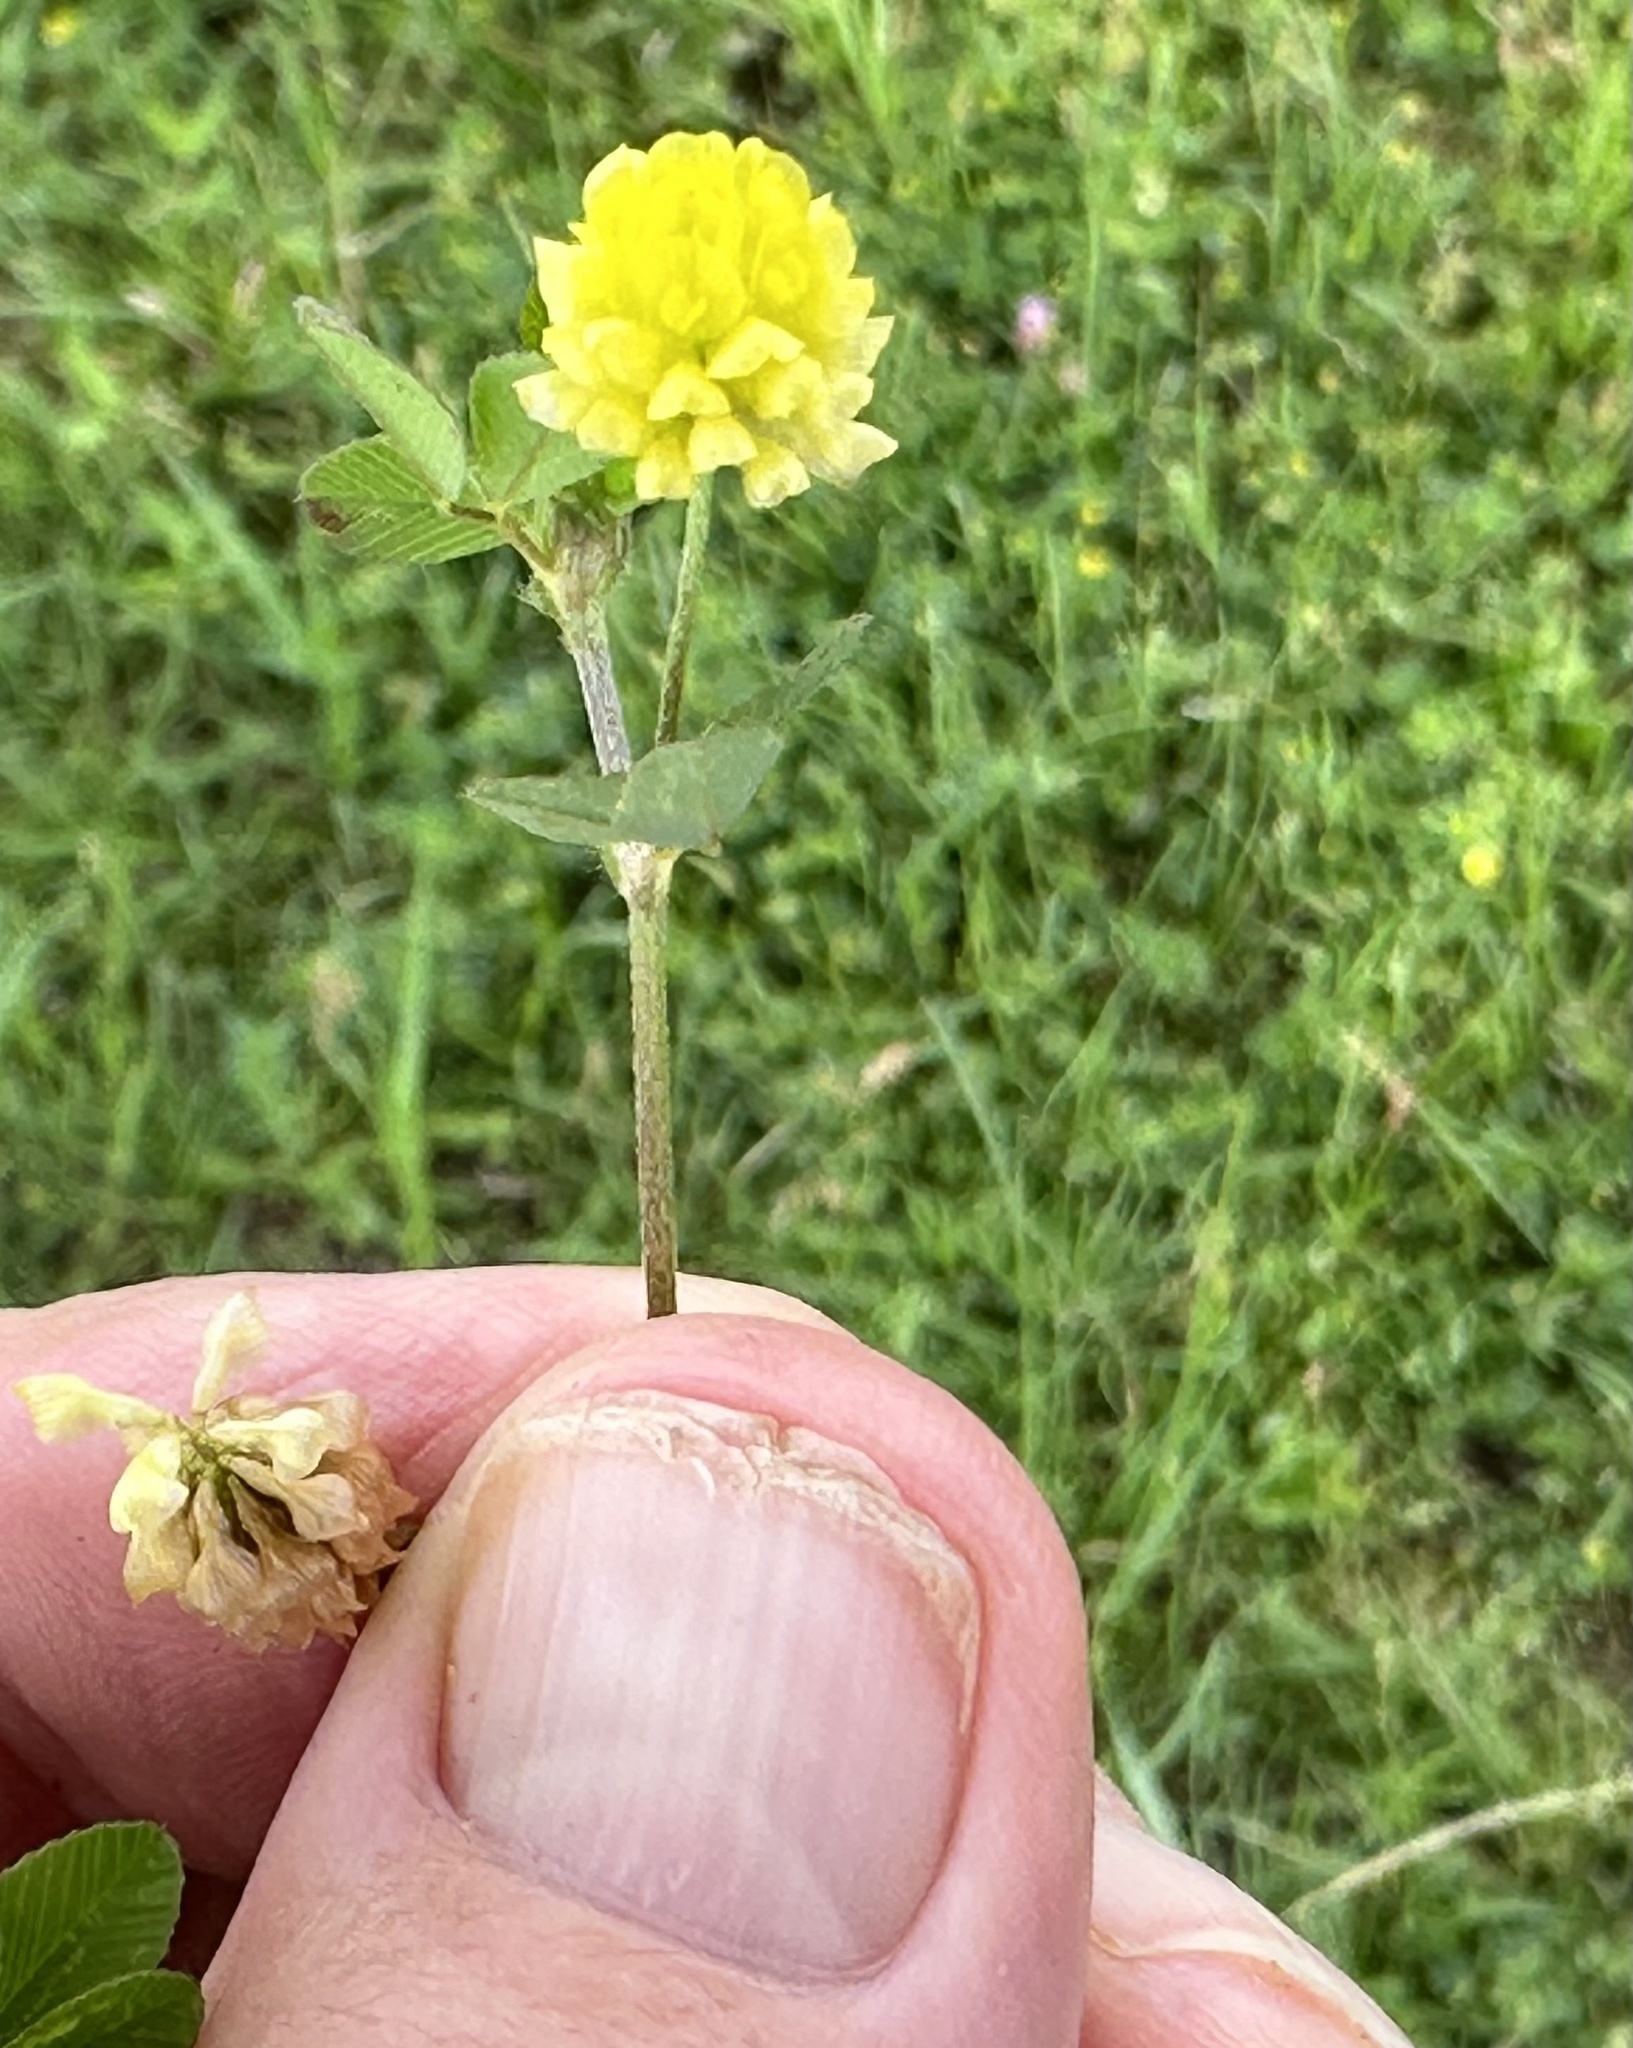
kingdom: Plantae
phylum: Tracheophyta
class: Magnoliopsida
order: Fabales
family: Fabaceae
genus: Medicago
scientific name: Medicago lupulina
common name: Black medick
